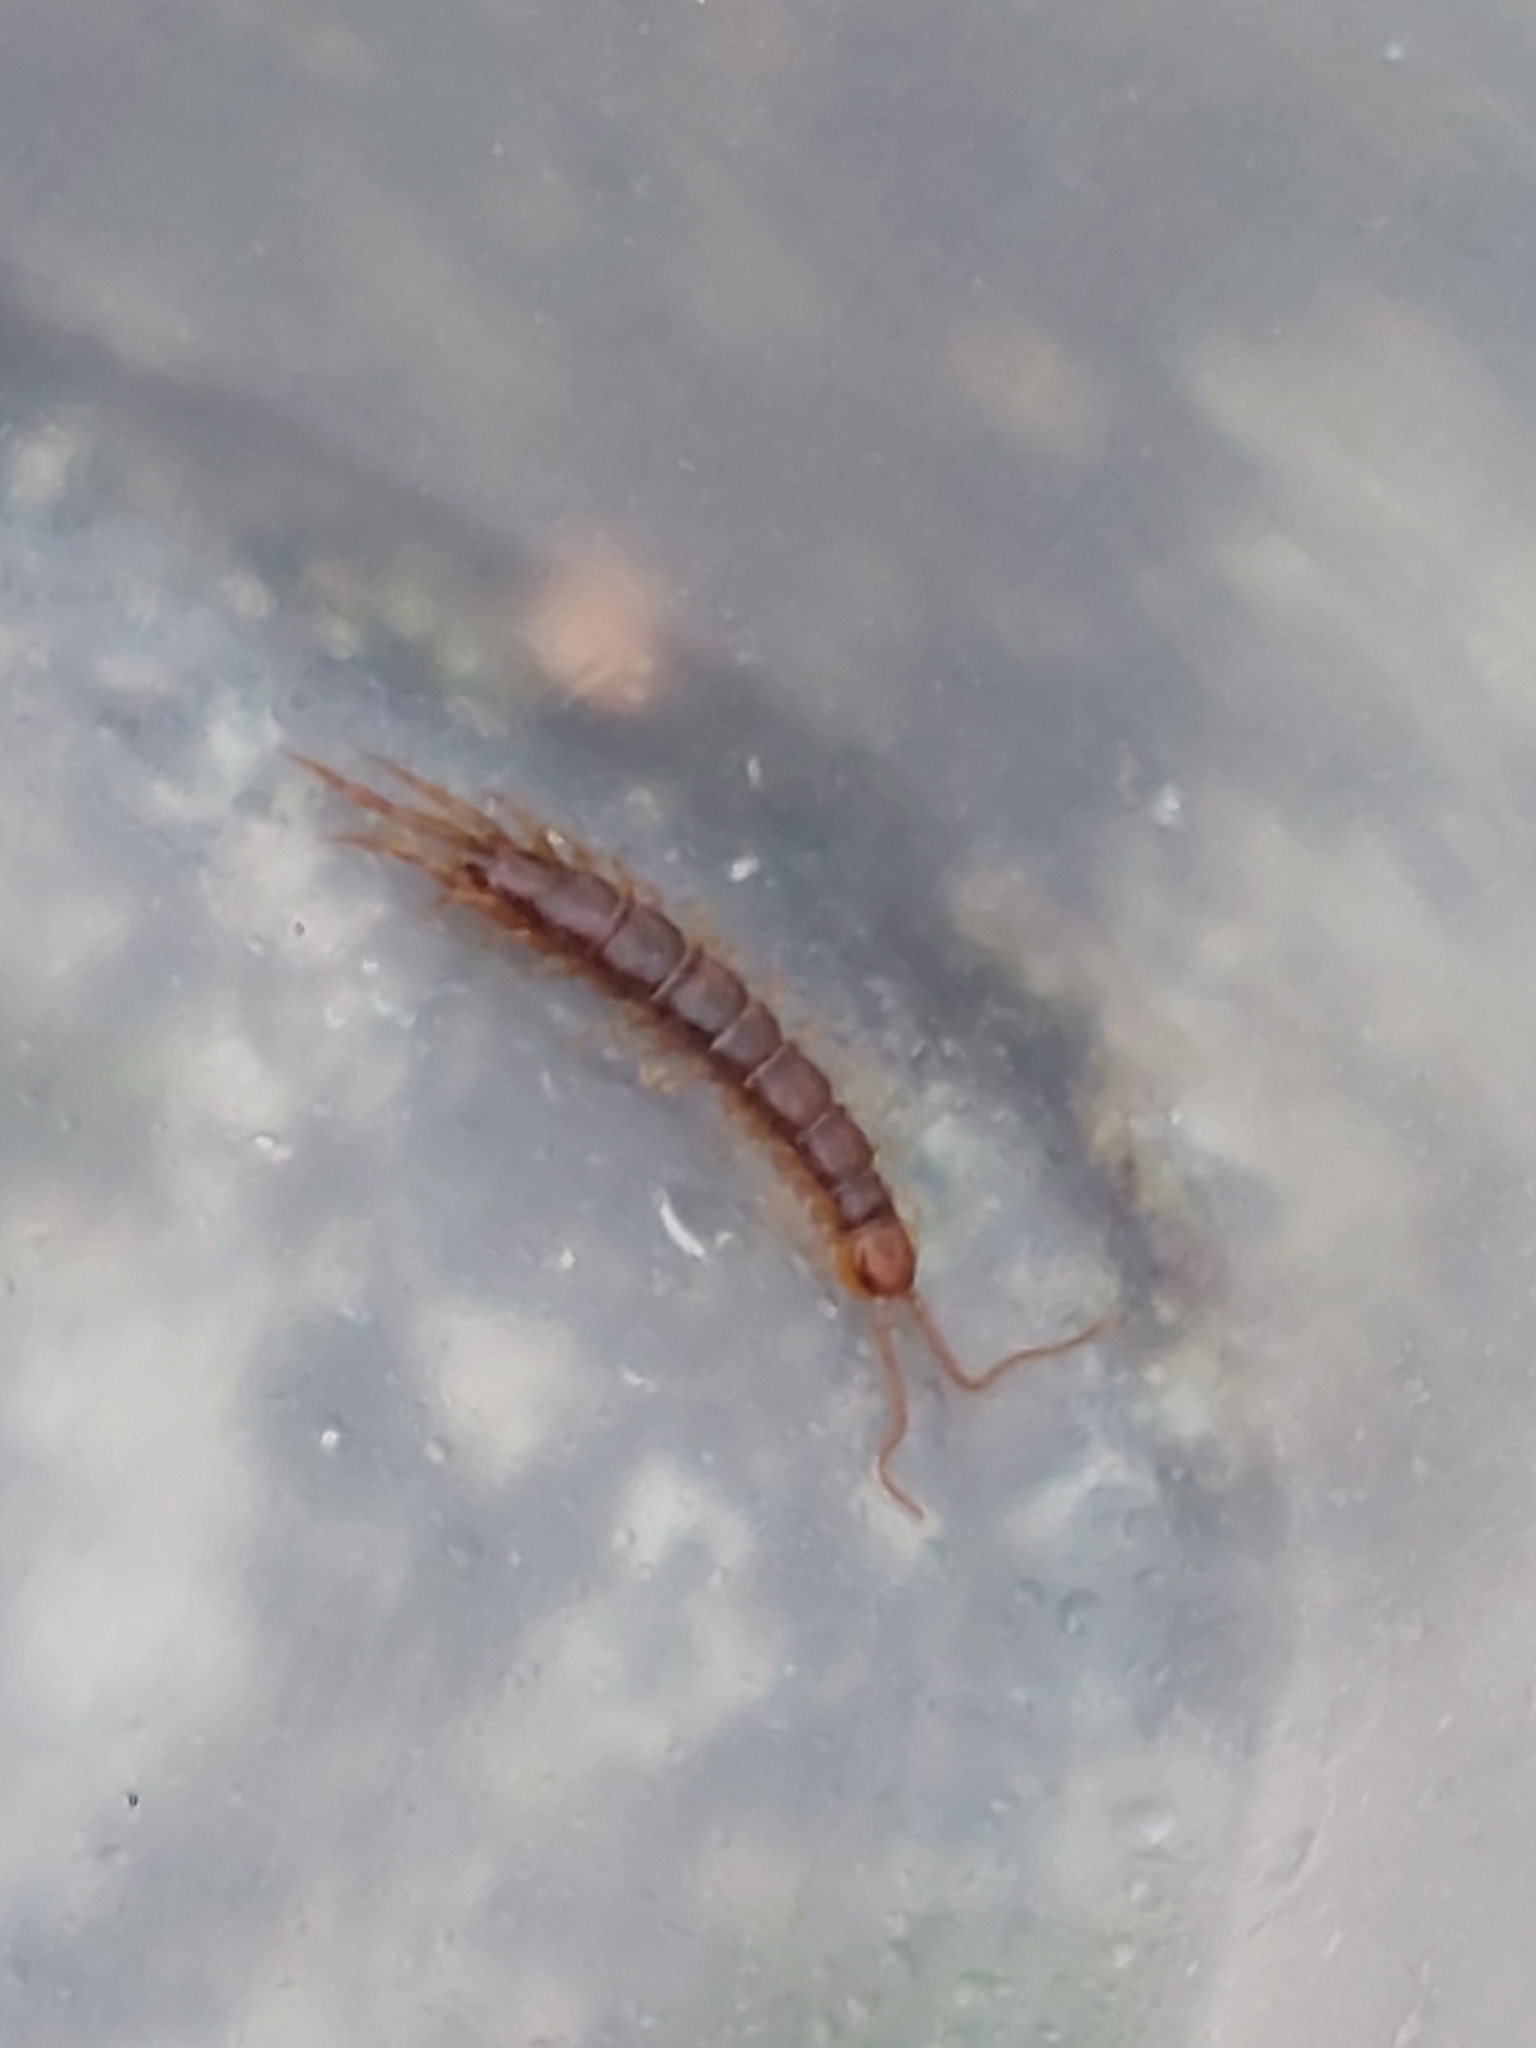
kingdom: Animalia
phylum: Arthropoda
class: Chilopoda
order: Lithobiomorpha
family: Lithobiidae
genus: Lithobius
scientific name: Lithobius
